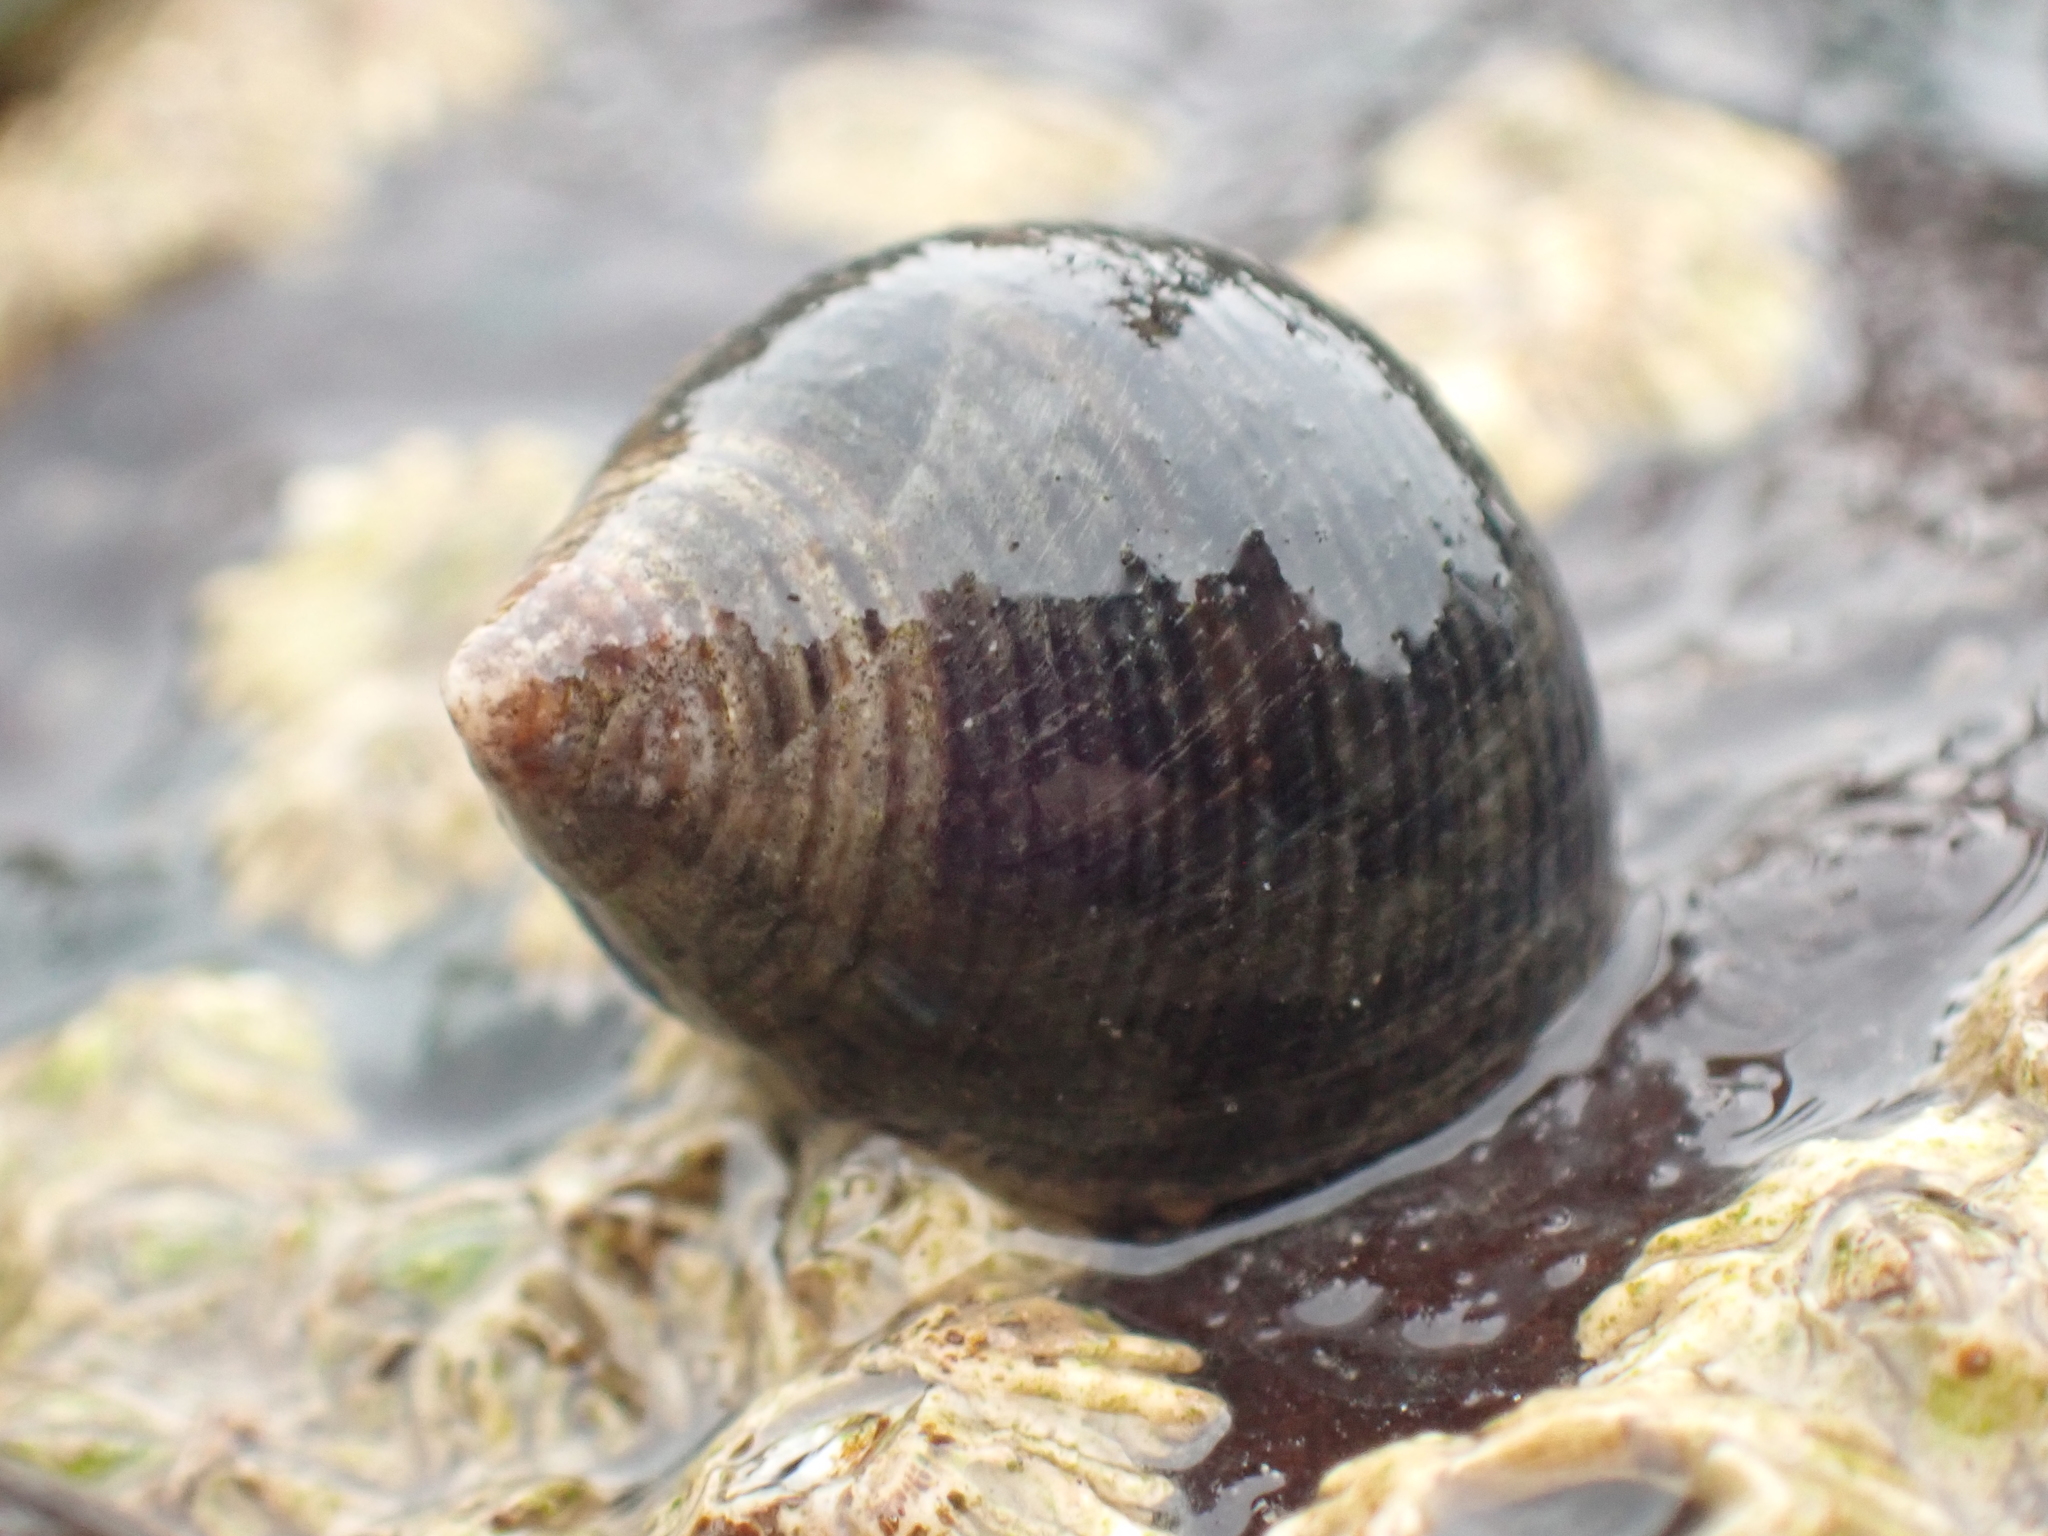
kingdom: Animalia
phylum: Mollusca
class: Gastropoda
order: Littorinimorpha
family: Littorinidae
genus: Littorina
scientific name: Littorina littorea
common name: Common periwinkle
